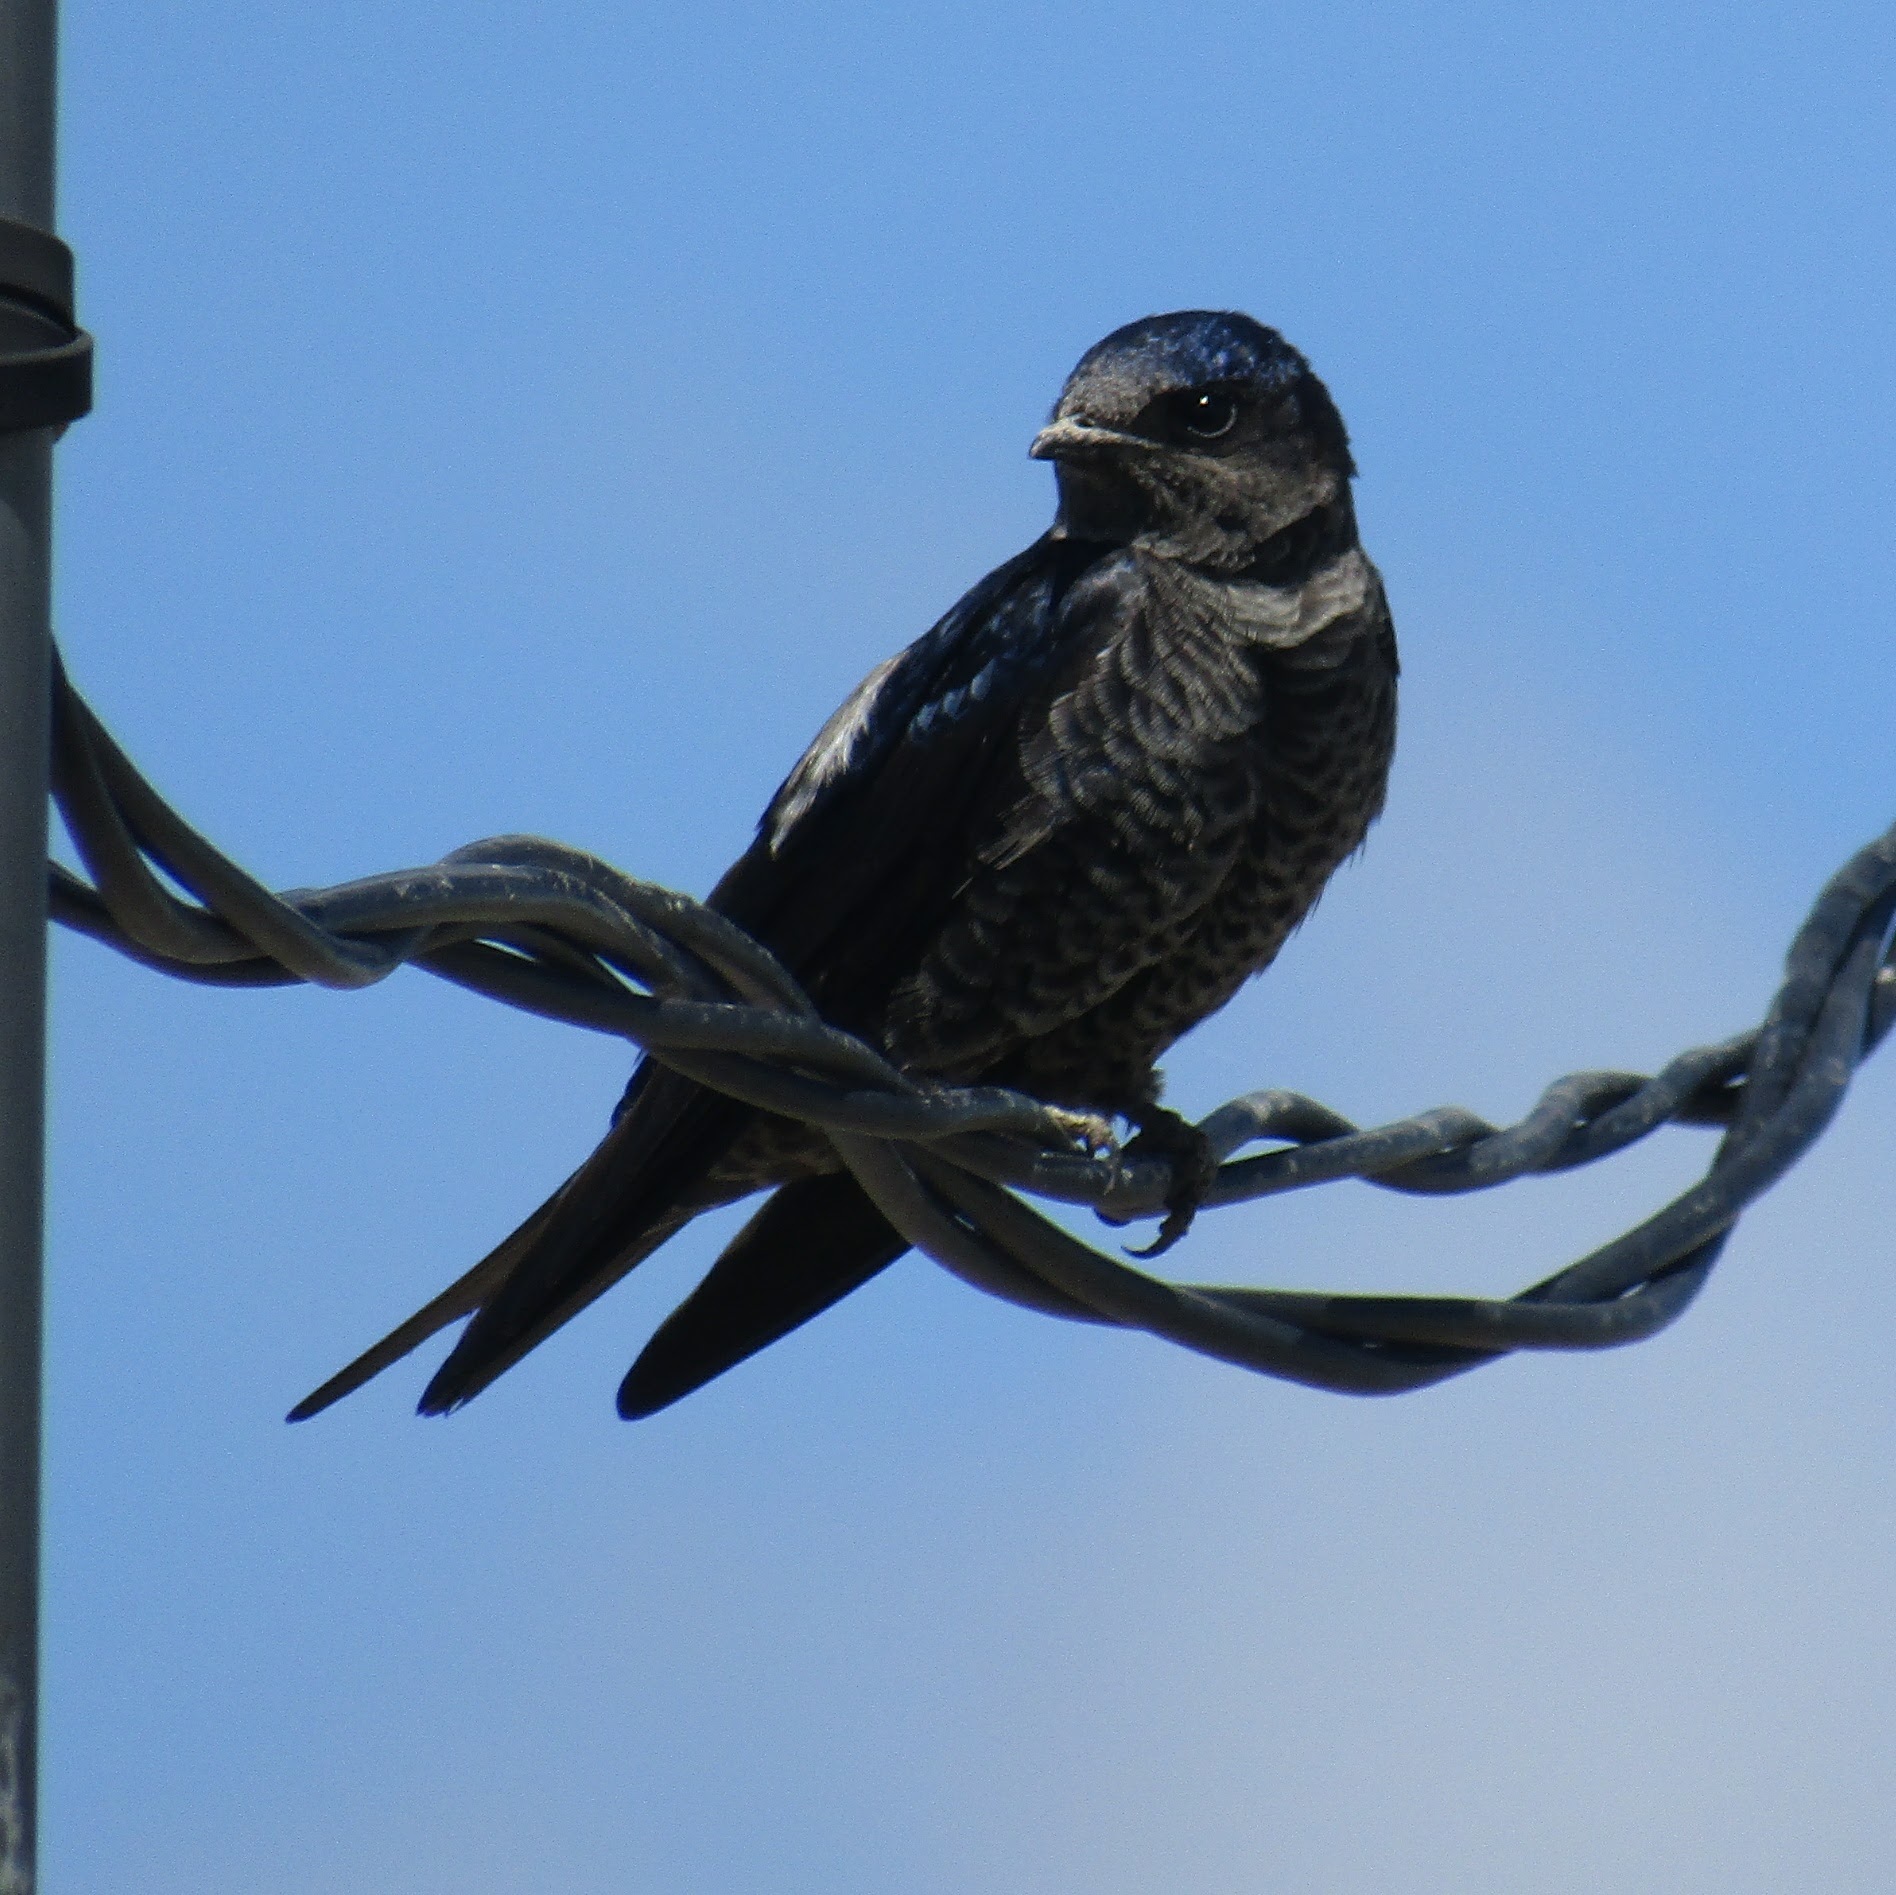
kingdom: Animalia
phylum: Chordata
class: Aves
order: Passeriformes
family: Hirundinidae
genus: Progne
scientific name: Progne elegans
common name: Southern martin
